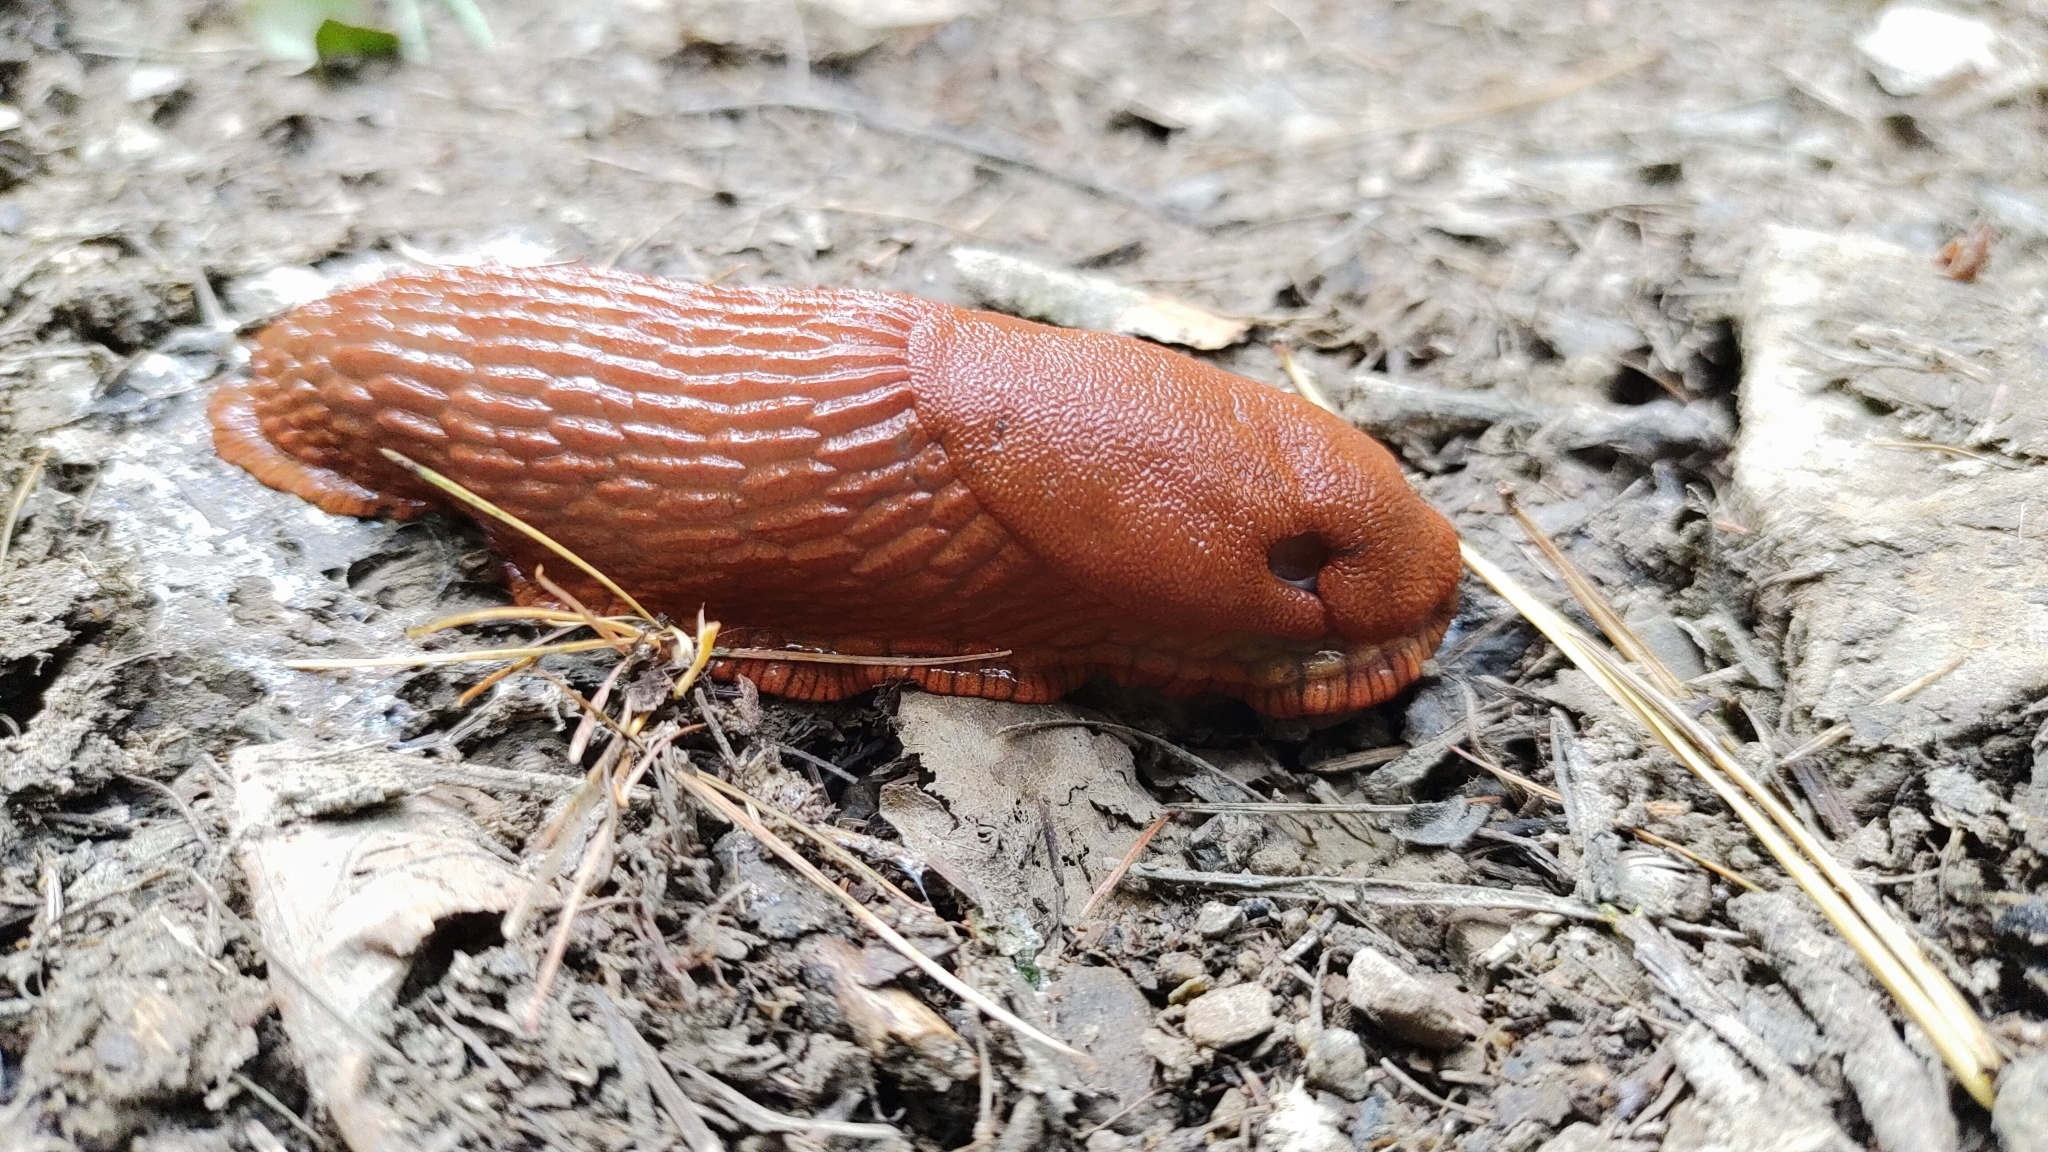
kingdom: Animalia
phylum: Mollusca
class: Gastropoda
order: Stylommatophora
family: Arionidae
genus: Arion
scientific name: Arion vulgaris
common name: Lusitanian slug
